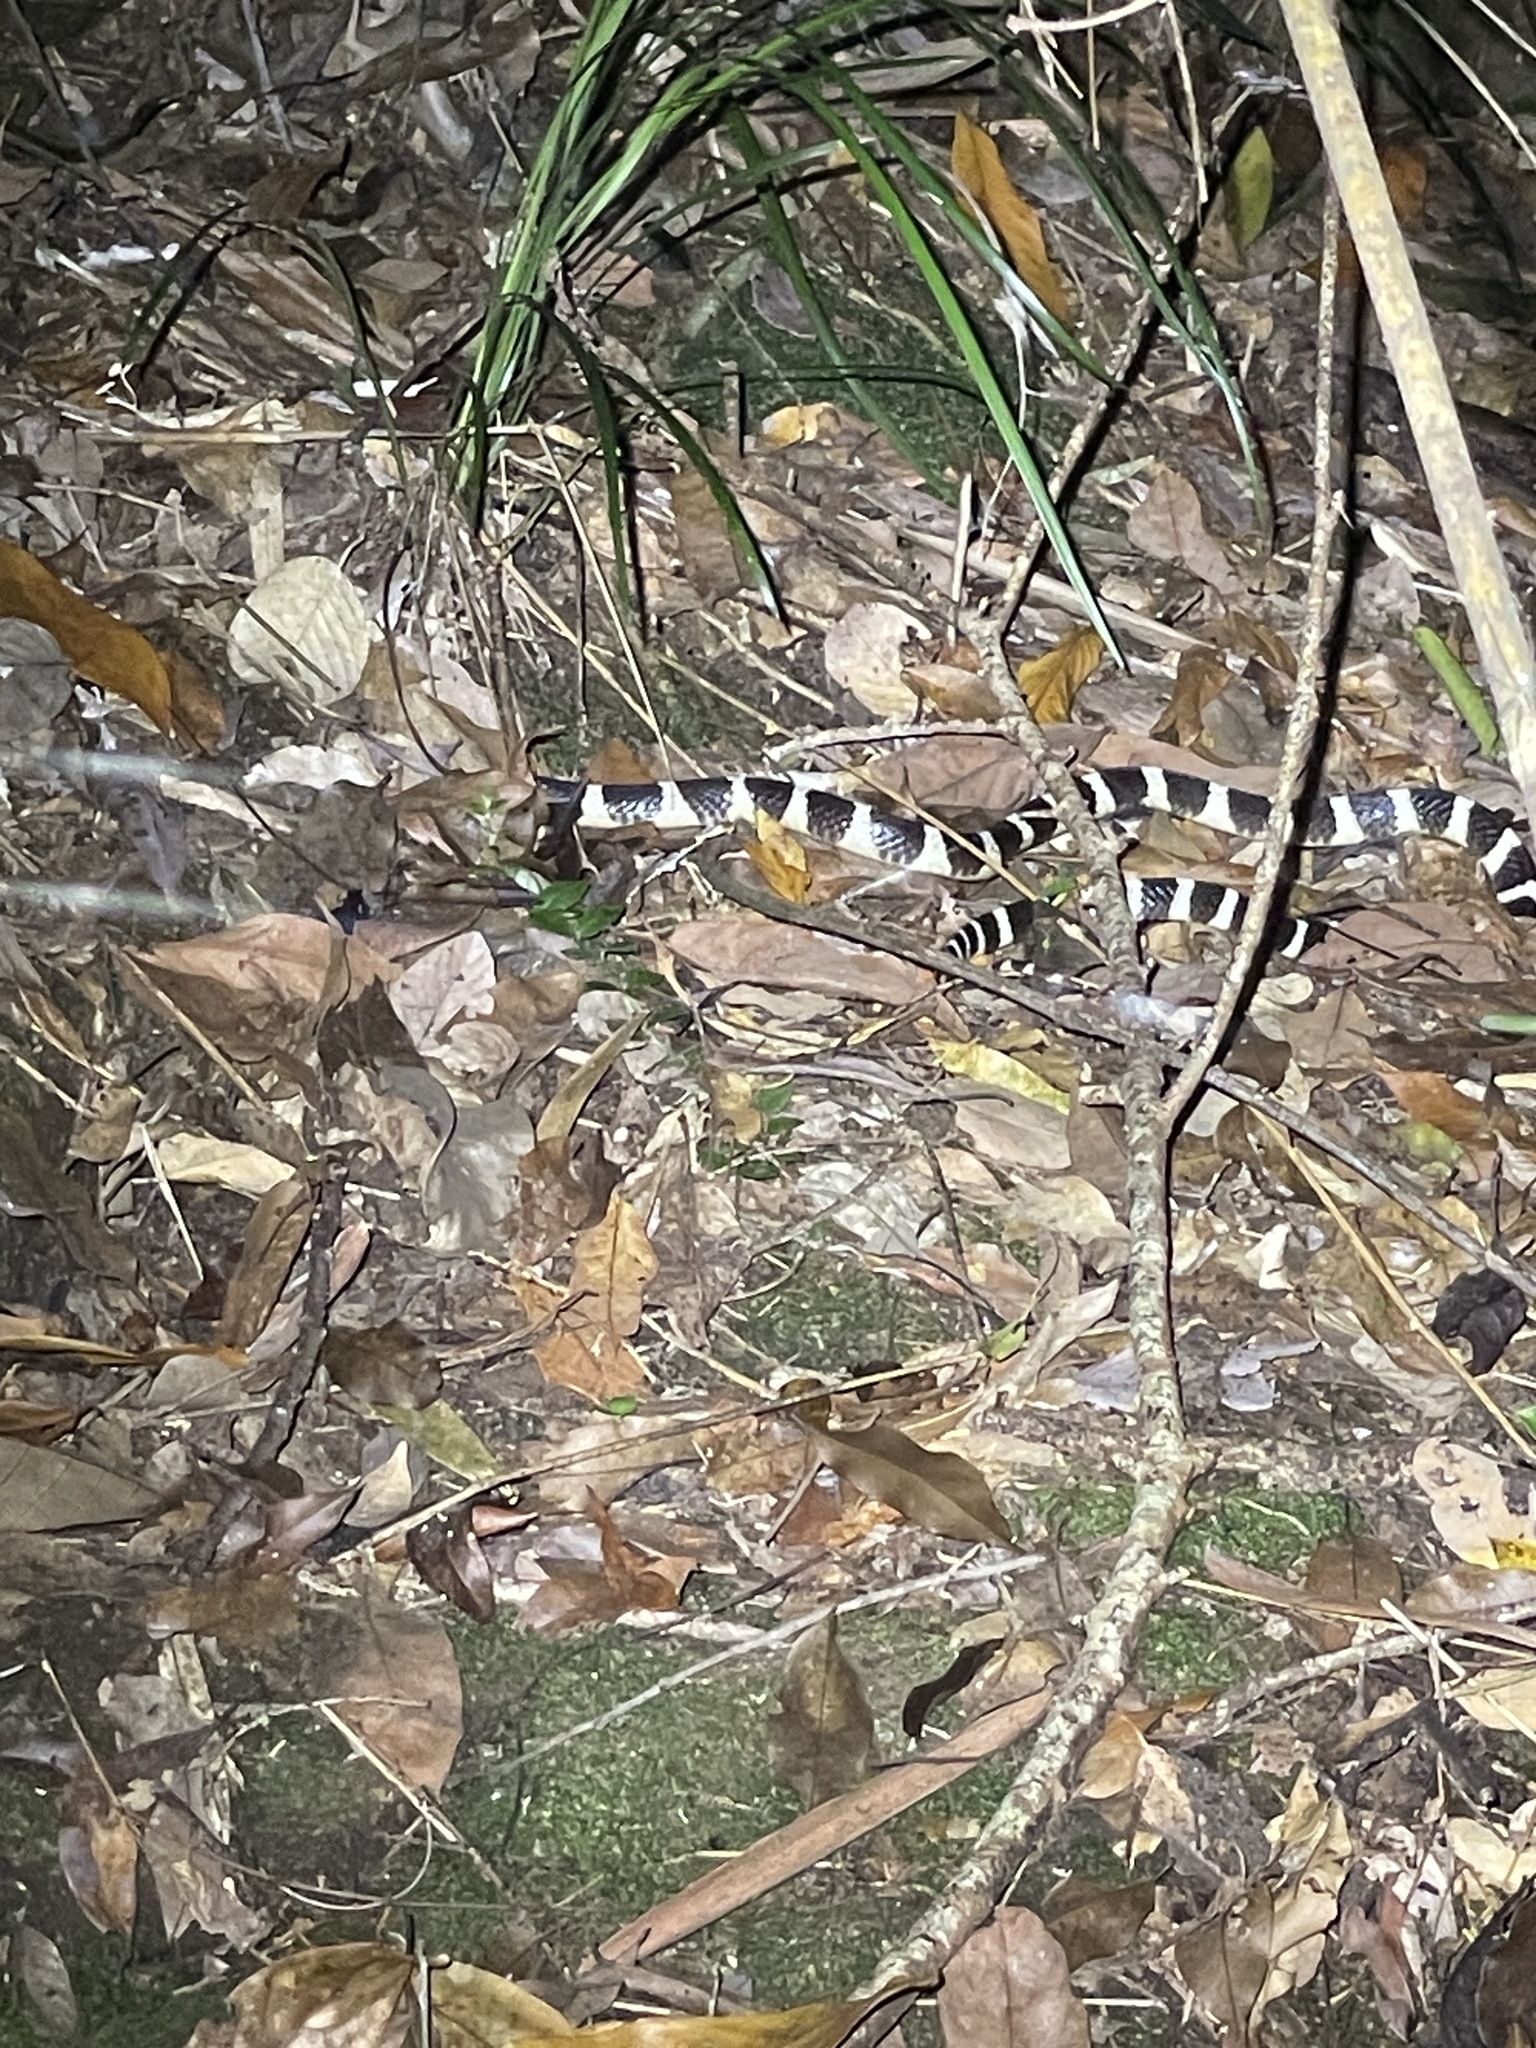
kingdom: Animalia
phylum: Chordata
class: Squamata
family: Elapidae
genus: Bungarus
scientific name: Bungarus multicinctus
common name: Many-banded krait
